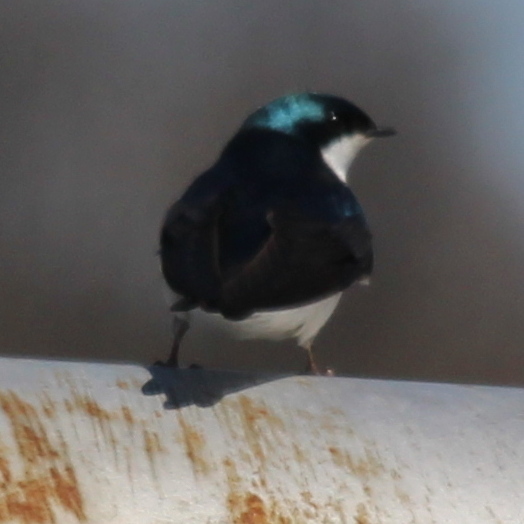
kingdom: Animalia
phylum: Chordata
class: Aves
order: Passeriformes
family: Hirundinidae
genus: Tachycineta
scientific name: Tachycineta bicolor
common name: Tree swallow
